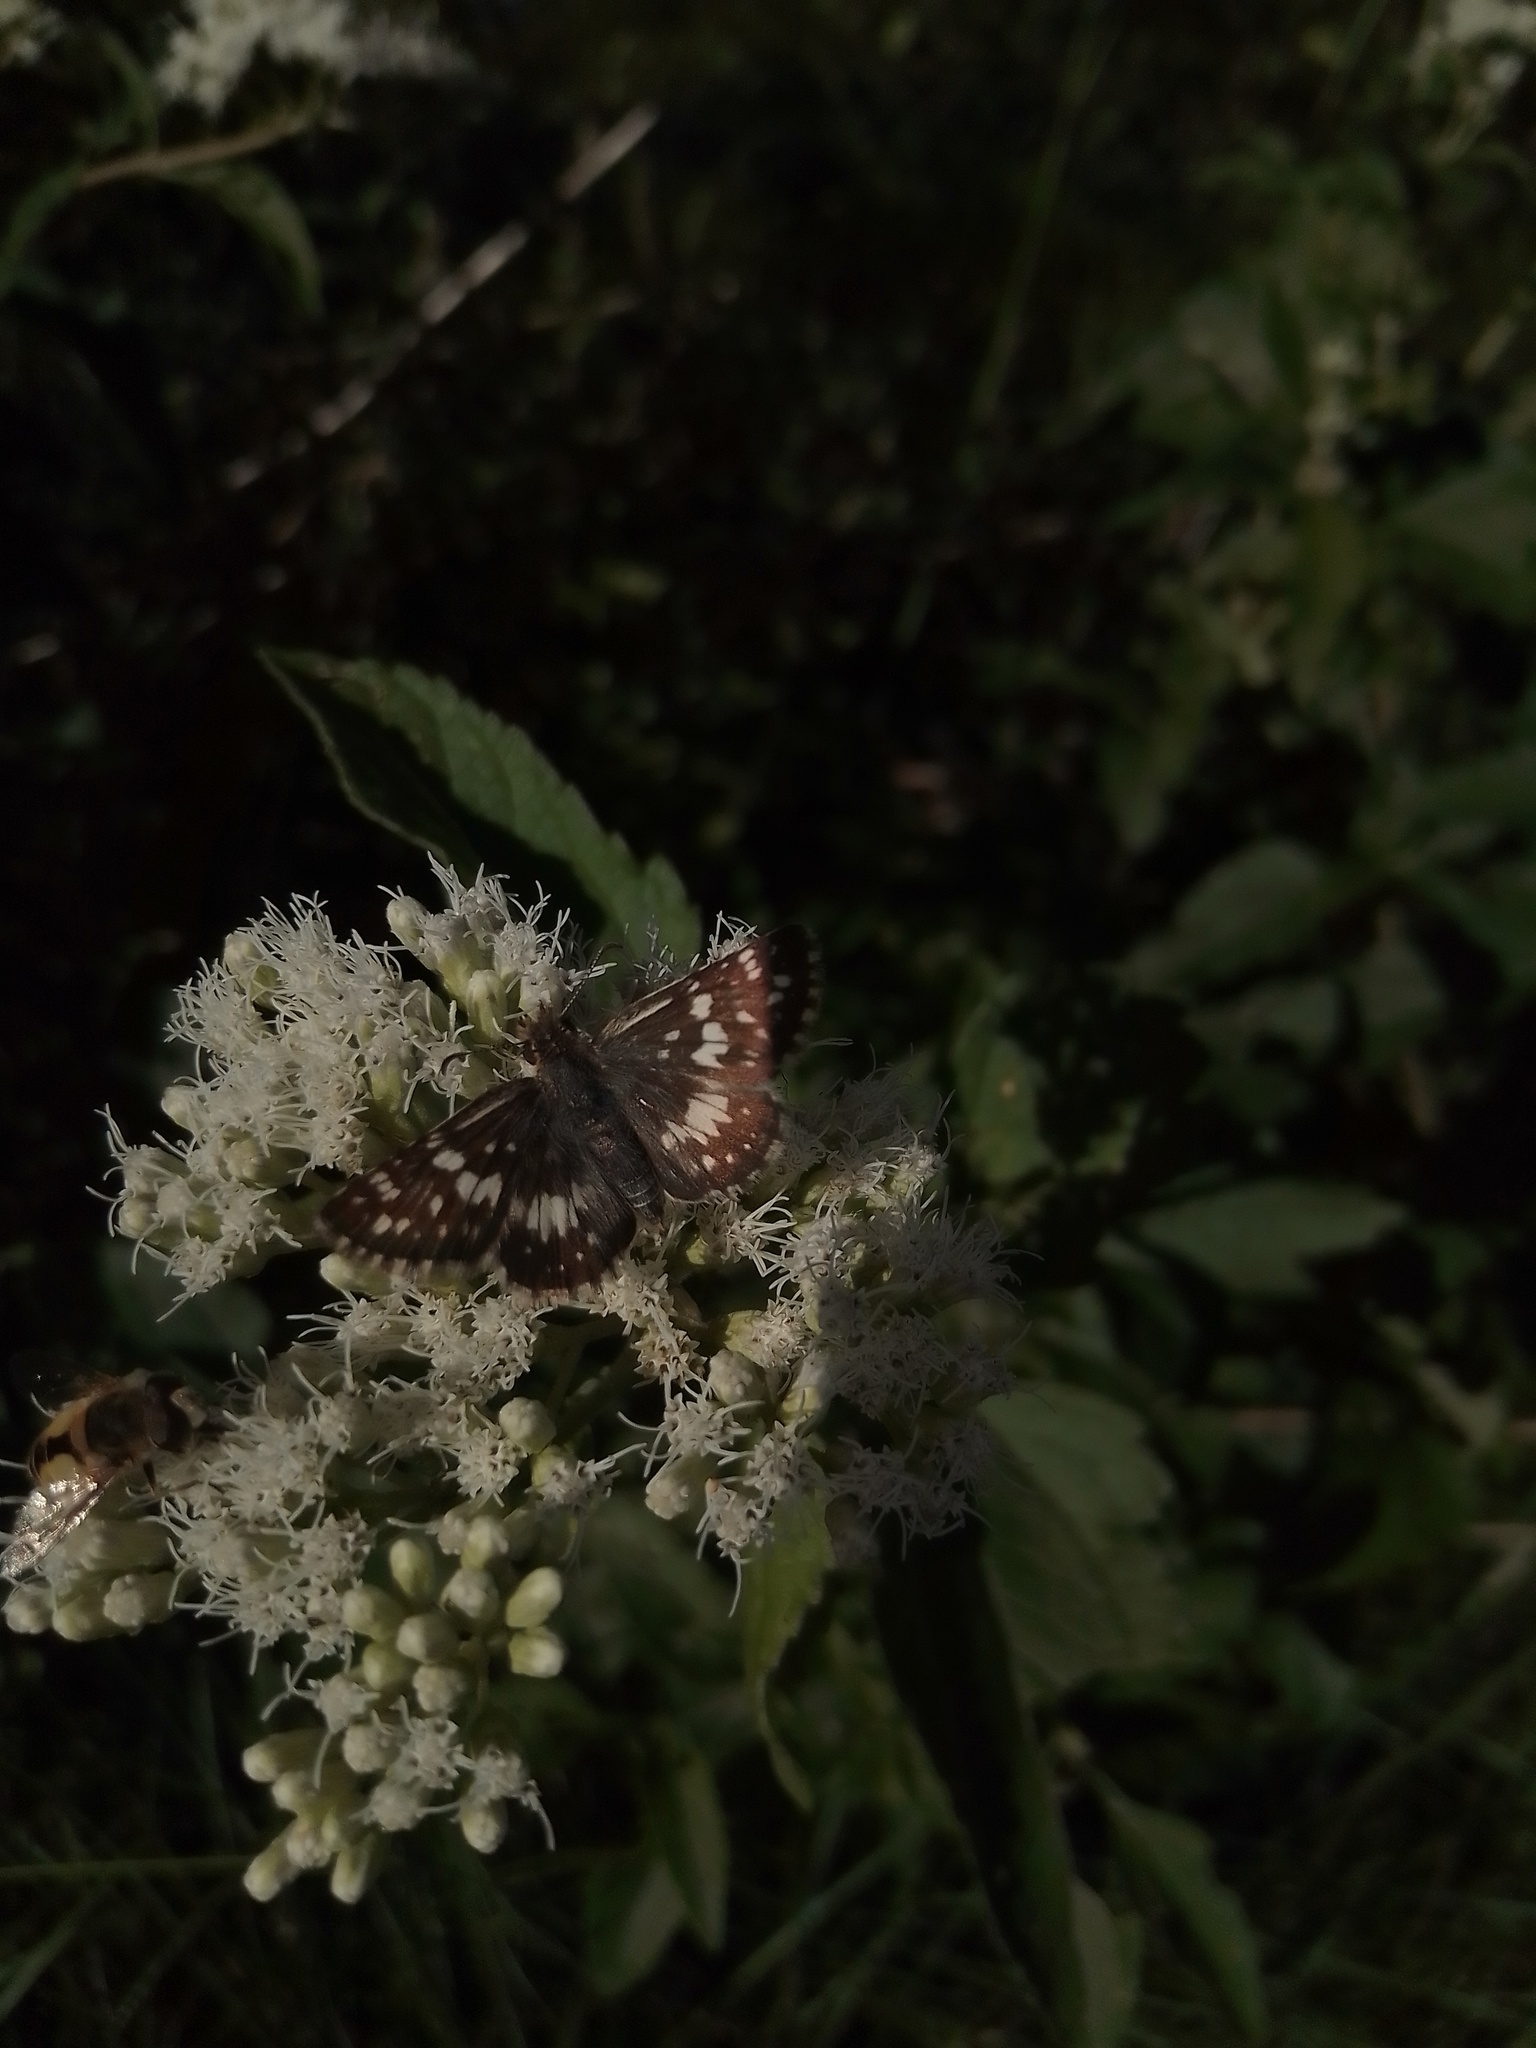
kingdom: Animalia
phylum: Arthropoda
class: Insecta
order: Lepidoptera
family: Nymphalidae
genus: Ortilia
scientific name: Ortilia ithra
